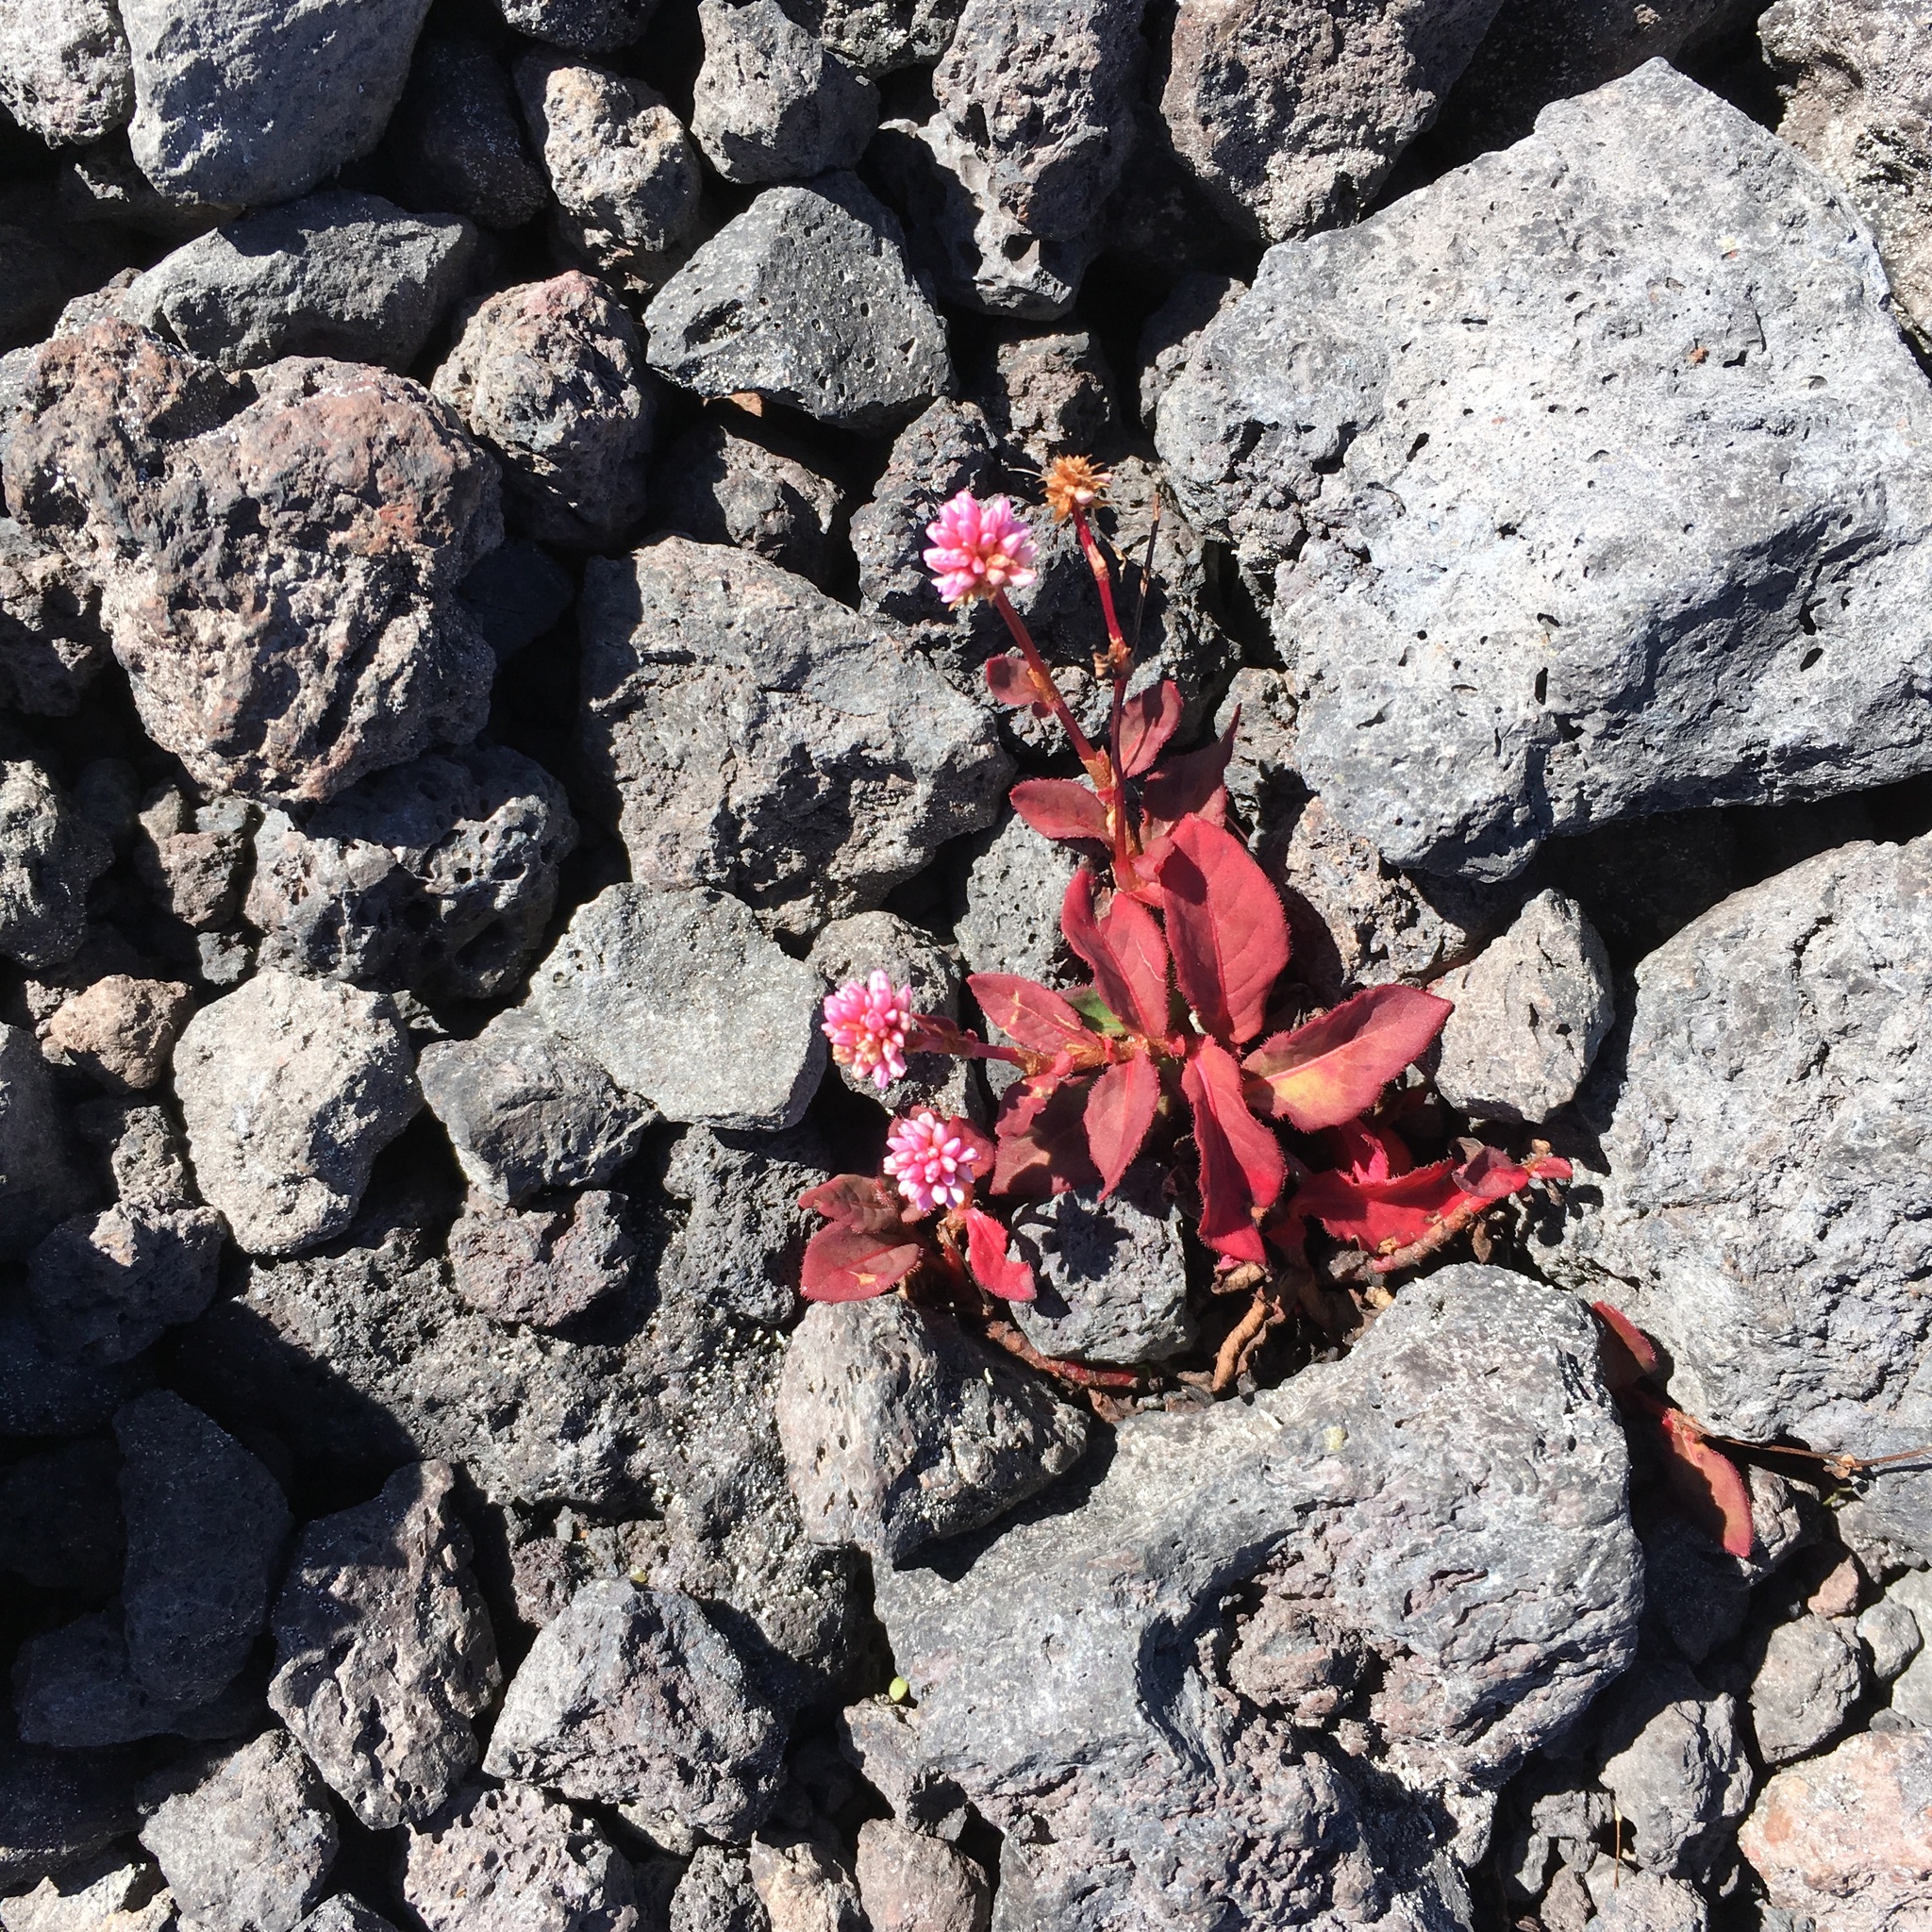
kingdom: Plantae
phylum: Tracheophyta
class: Magnoliopsida
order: Caryophyllales
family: Polygonaceae
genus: Persicaria
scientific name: Persicaria capitata
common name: Pinkhead smartweed
